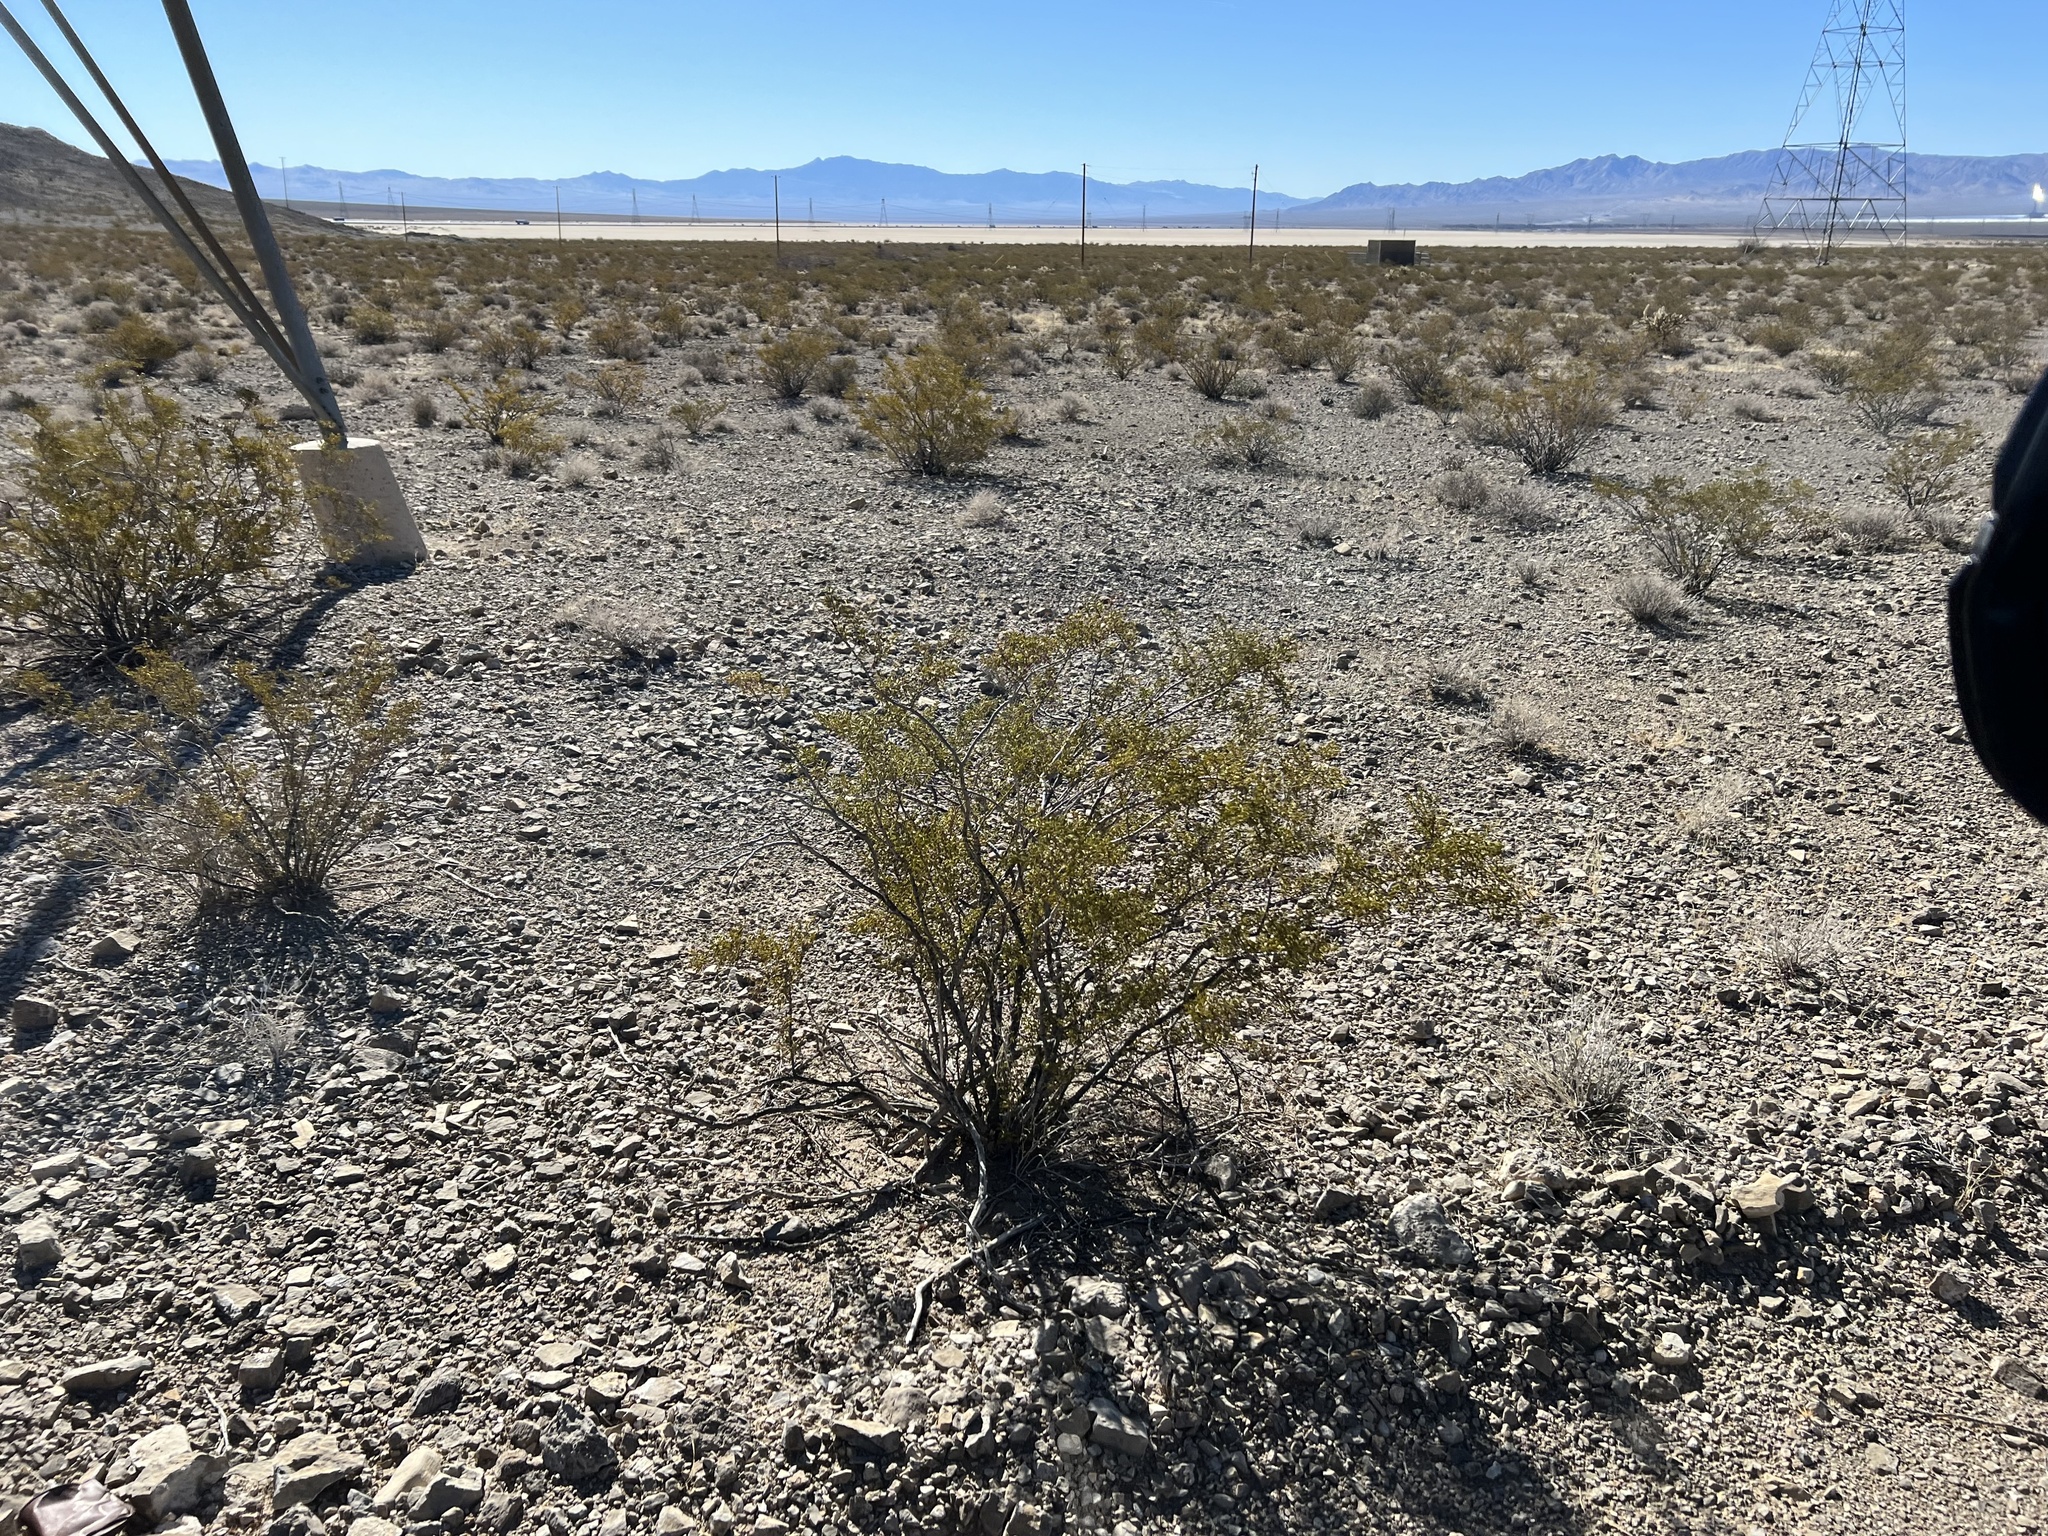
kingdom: Plantae
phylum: Tracheophyta
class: Magnoliopsida
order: Zygophyllales
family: Zygophyllaceae
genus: Larrea
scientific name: Larrea tridentata
